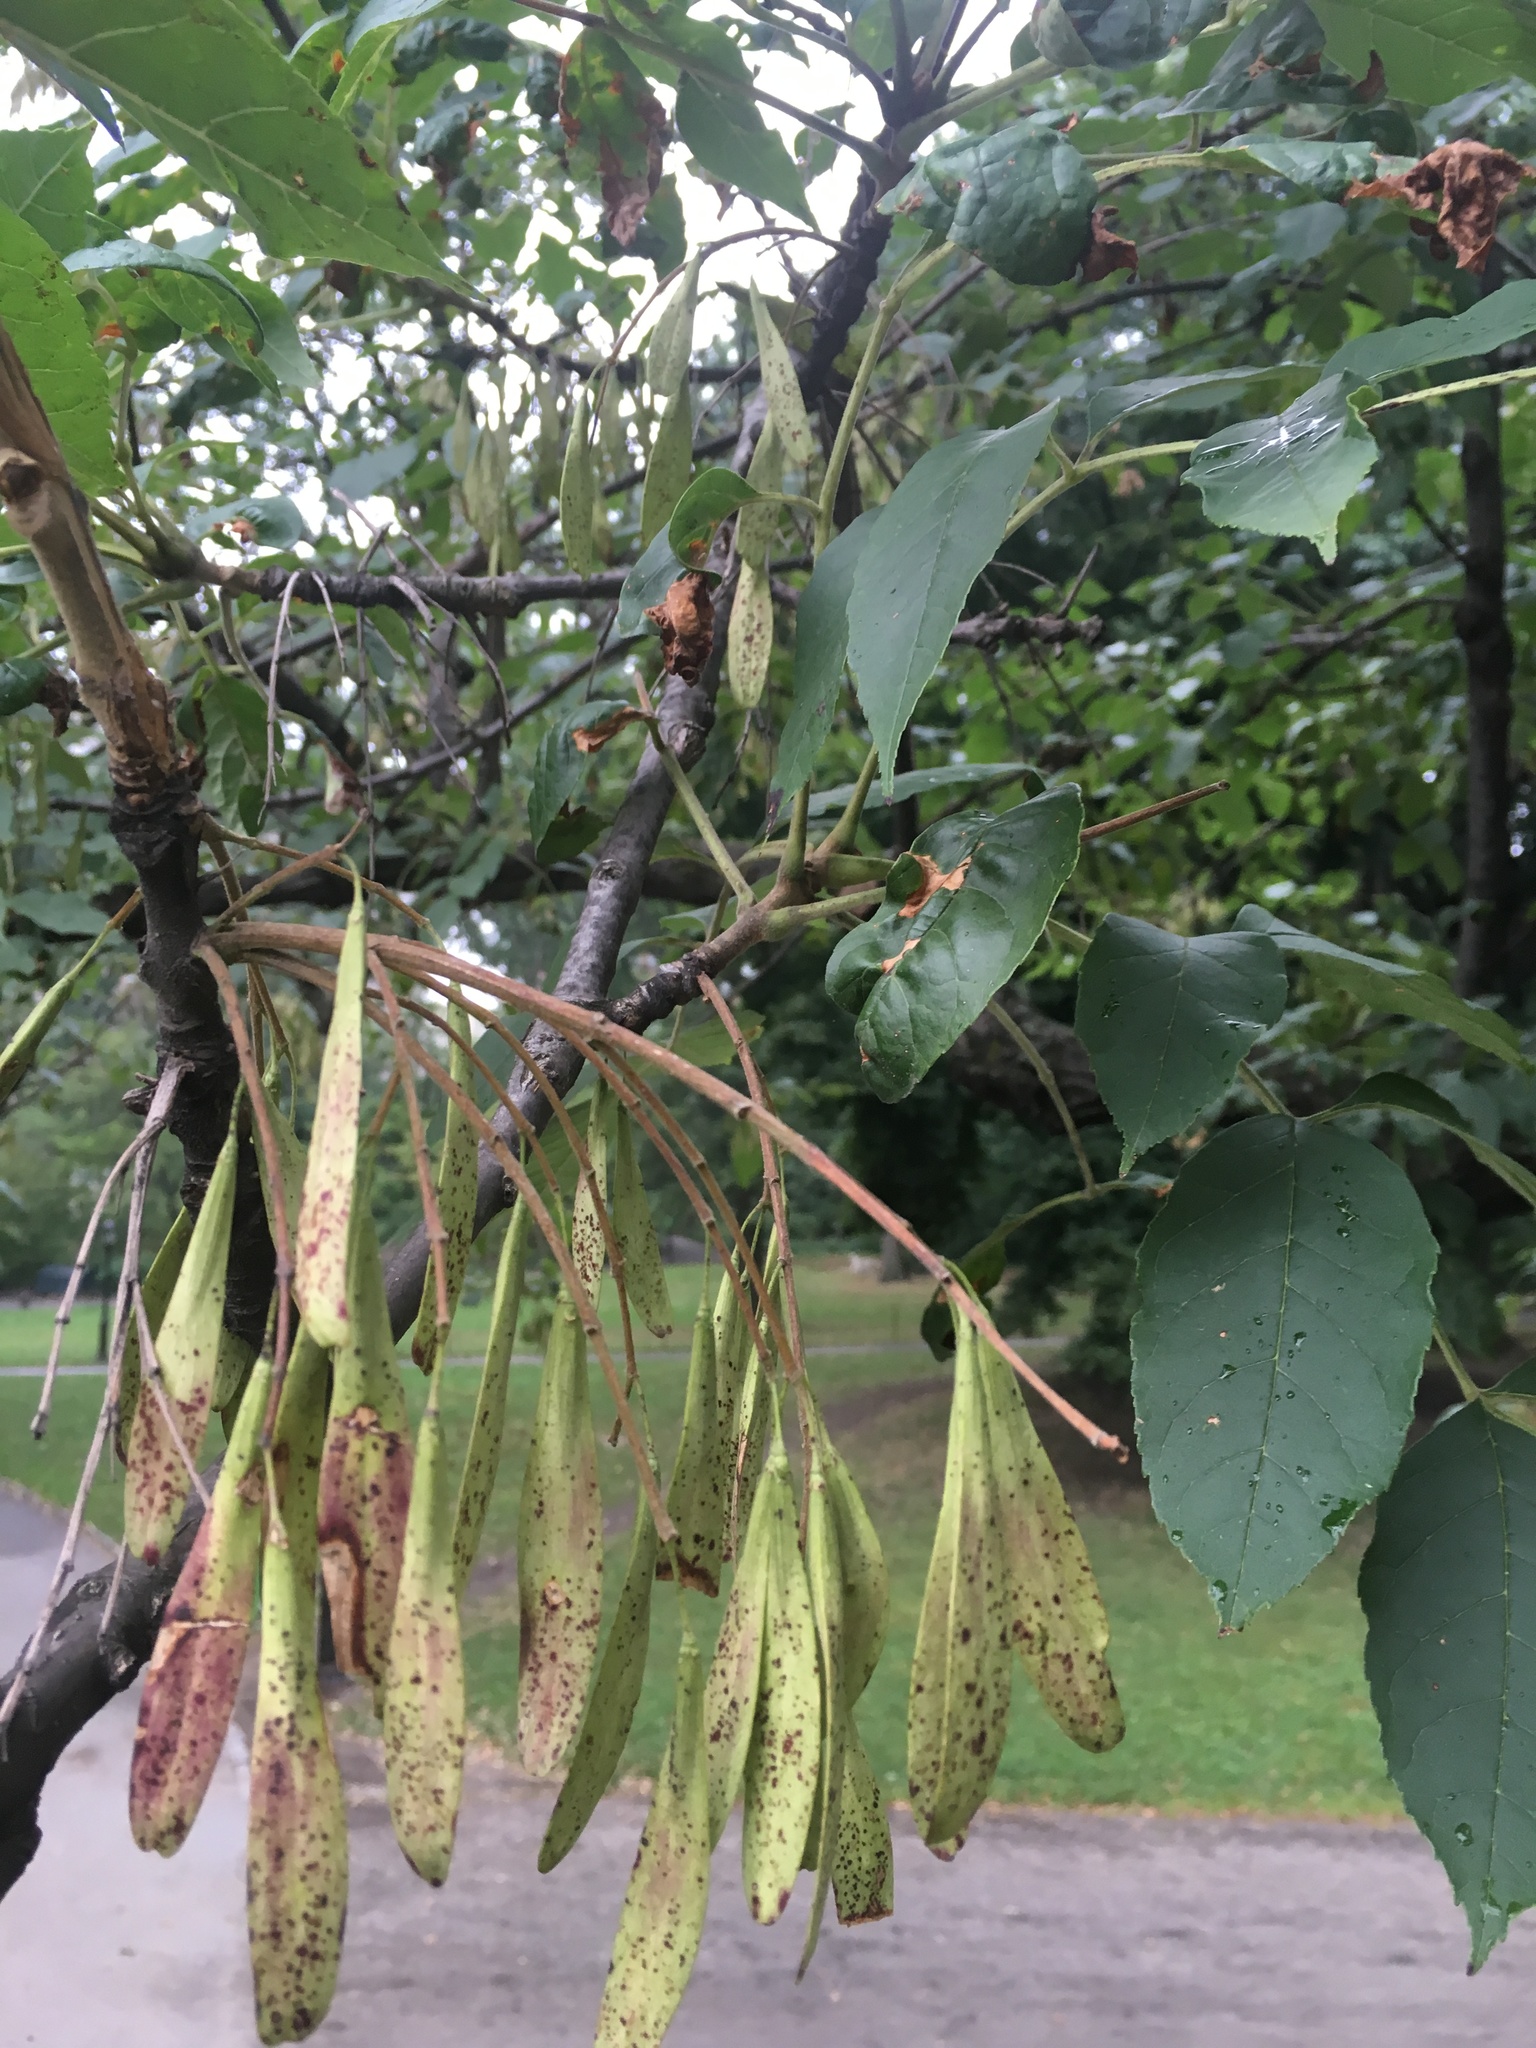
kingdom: Plantae
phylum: Tracheophyta
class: Magnoliopsida
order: Lamiales
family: Oleaceae
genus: Fraxinus
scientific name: Fraxinus profunda
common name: Pumpkin ash
